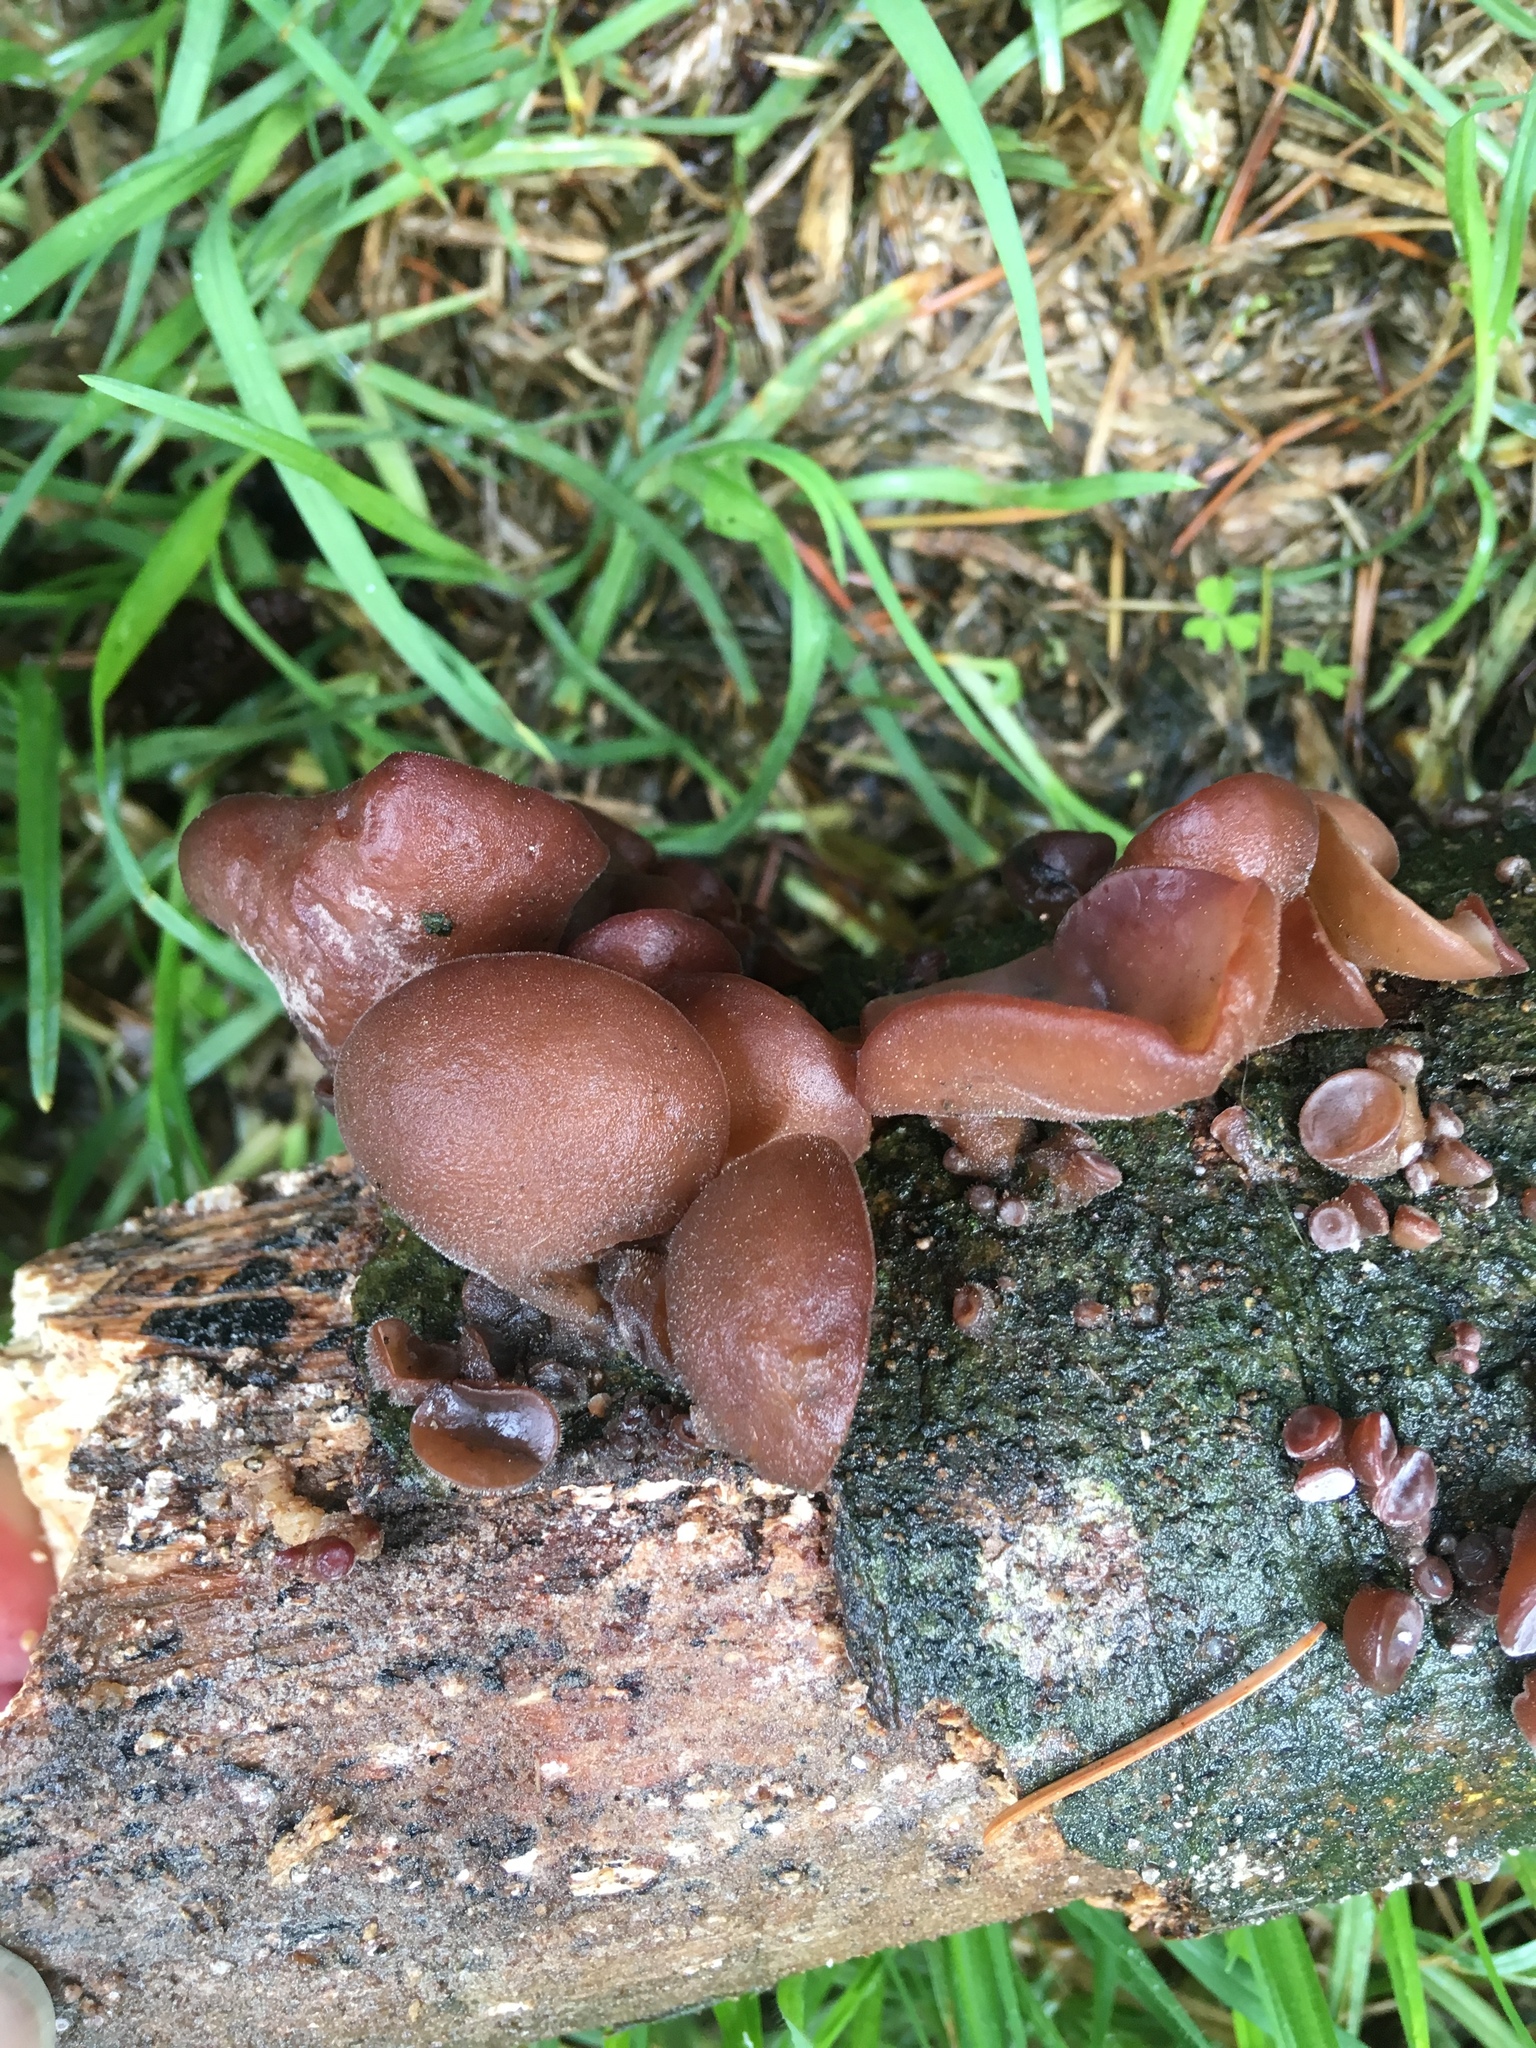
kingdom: Fungi
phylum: Basidiomycota
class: Agaricomycetes
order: Auriculariales
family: Auriculariaceae
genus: Auricularia
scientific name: Auricularia cornea
